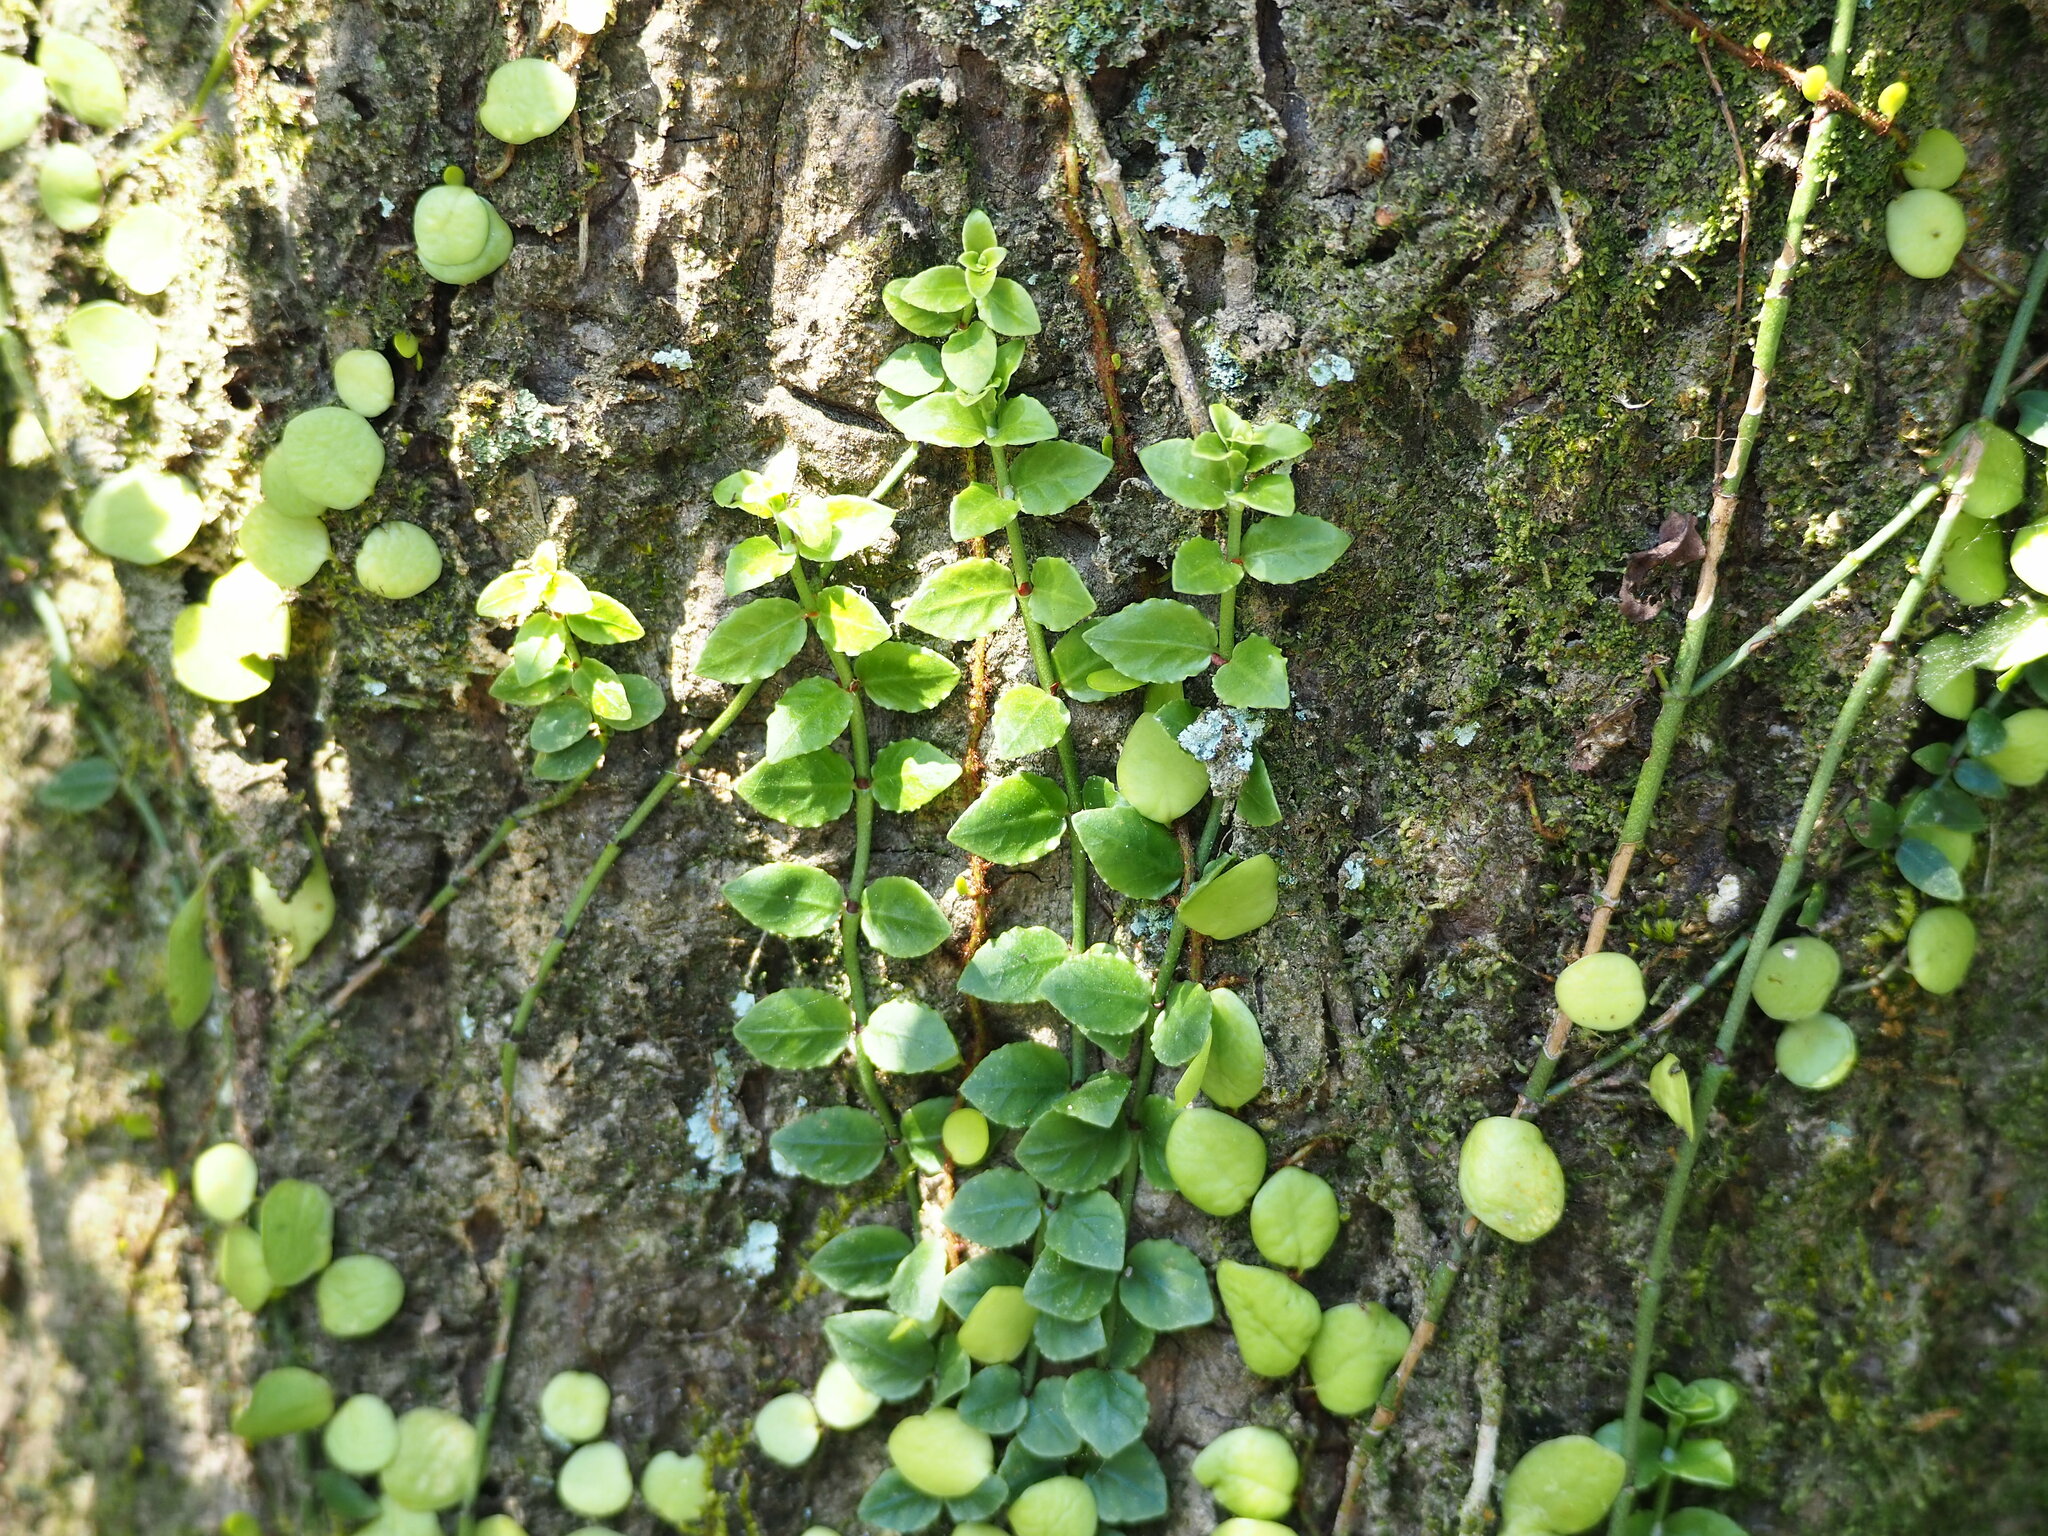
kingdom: Plantae
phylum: Tracheophyta
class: Magnoliopsida
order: Gentianales
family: Rubiaceae
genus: Psychotria
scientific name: Psychotria serpens
